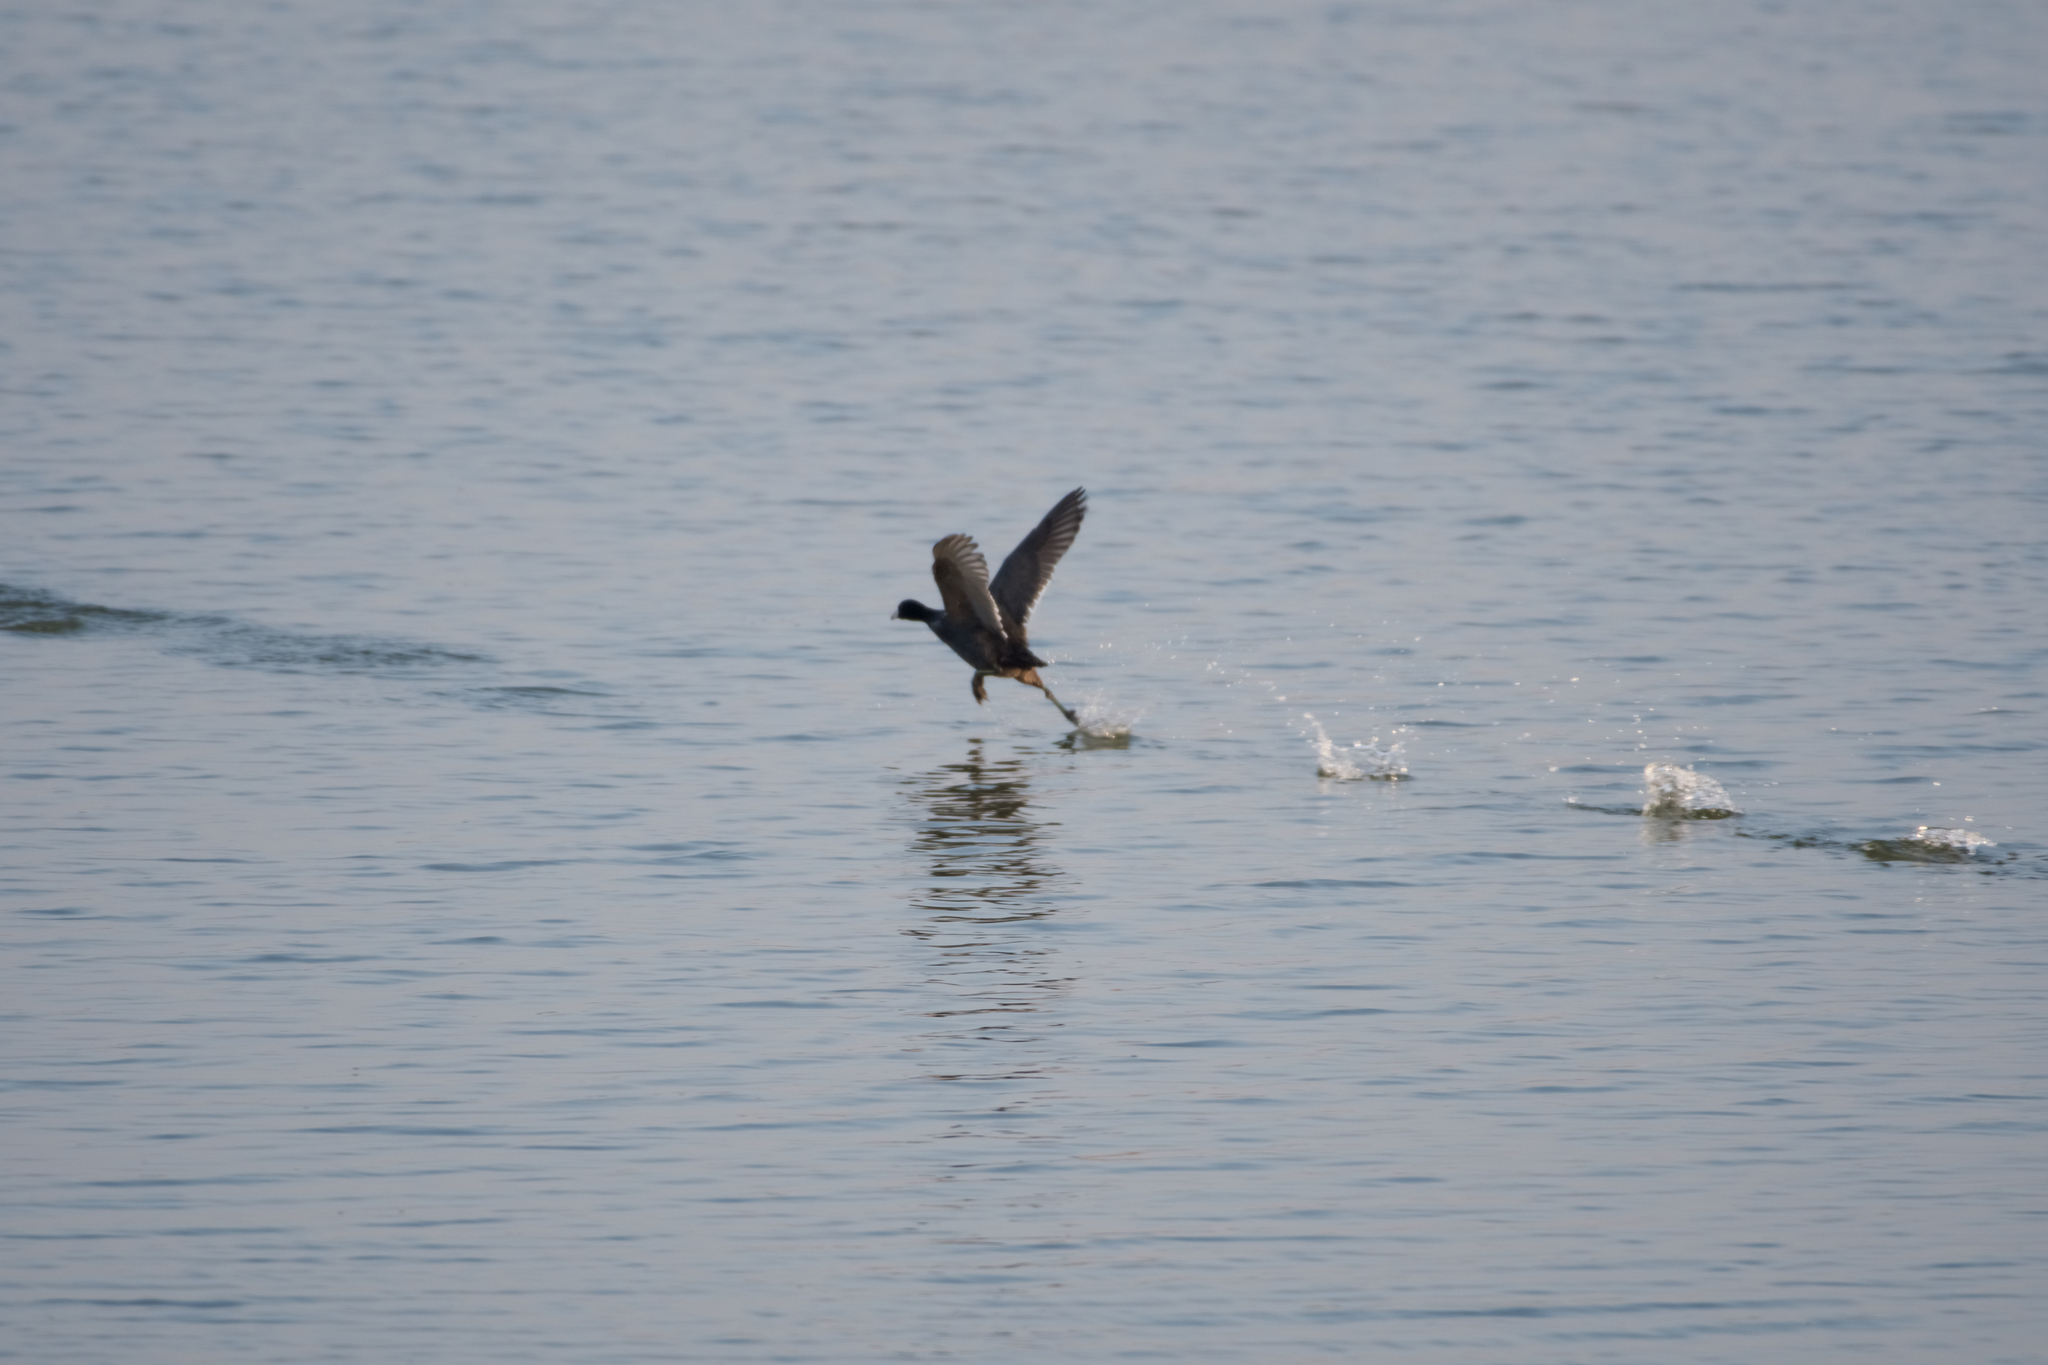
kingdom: Animalia
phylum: Chordata
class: Aves
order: Gruiformes
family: Rallidae
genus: Fulica
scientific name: Fulica americana
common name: American coot
